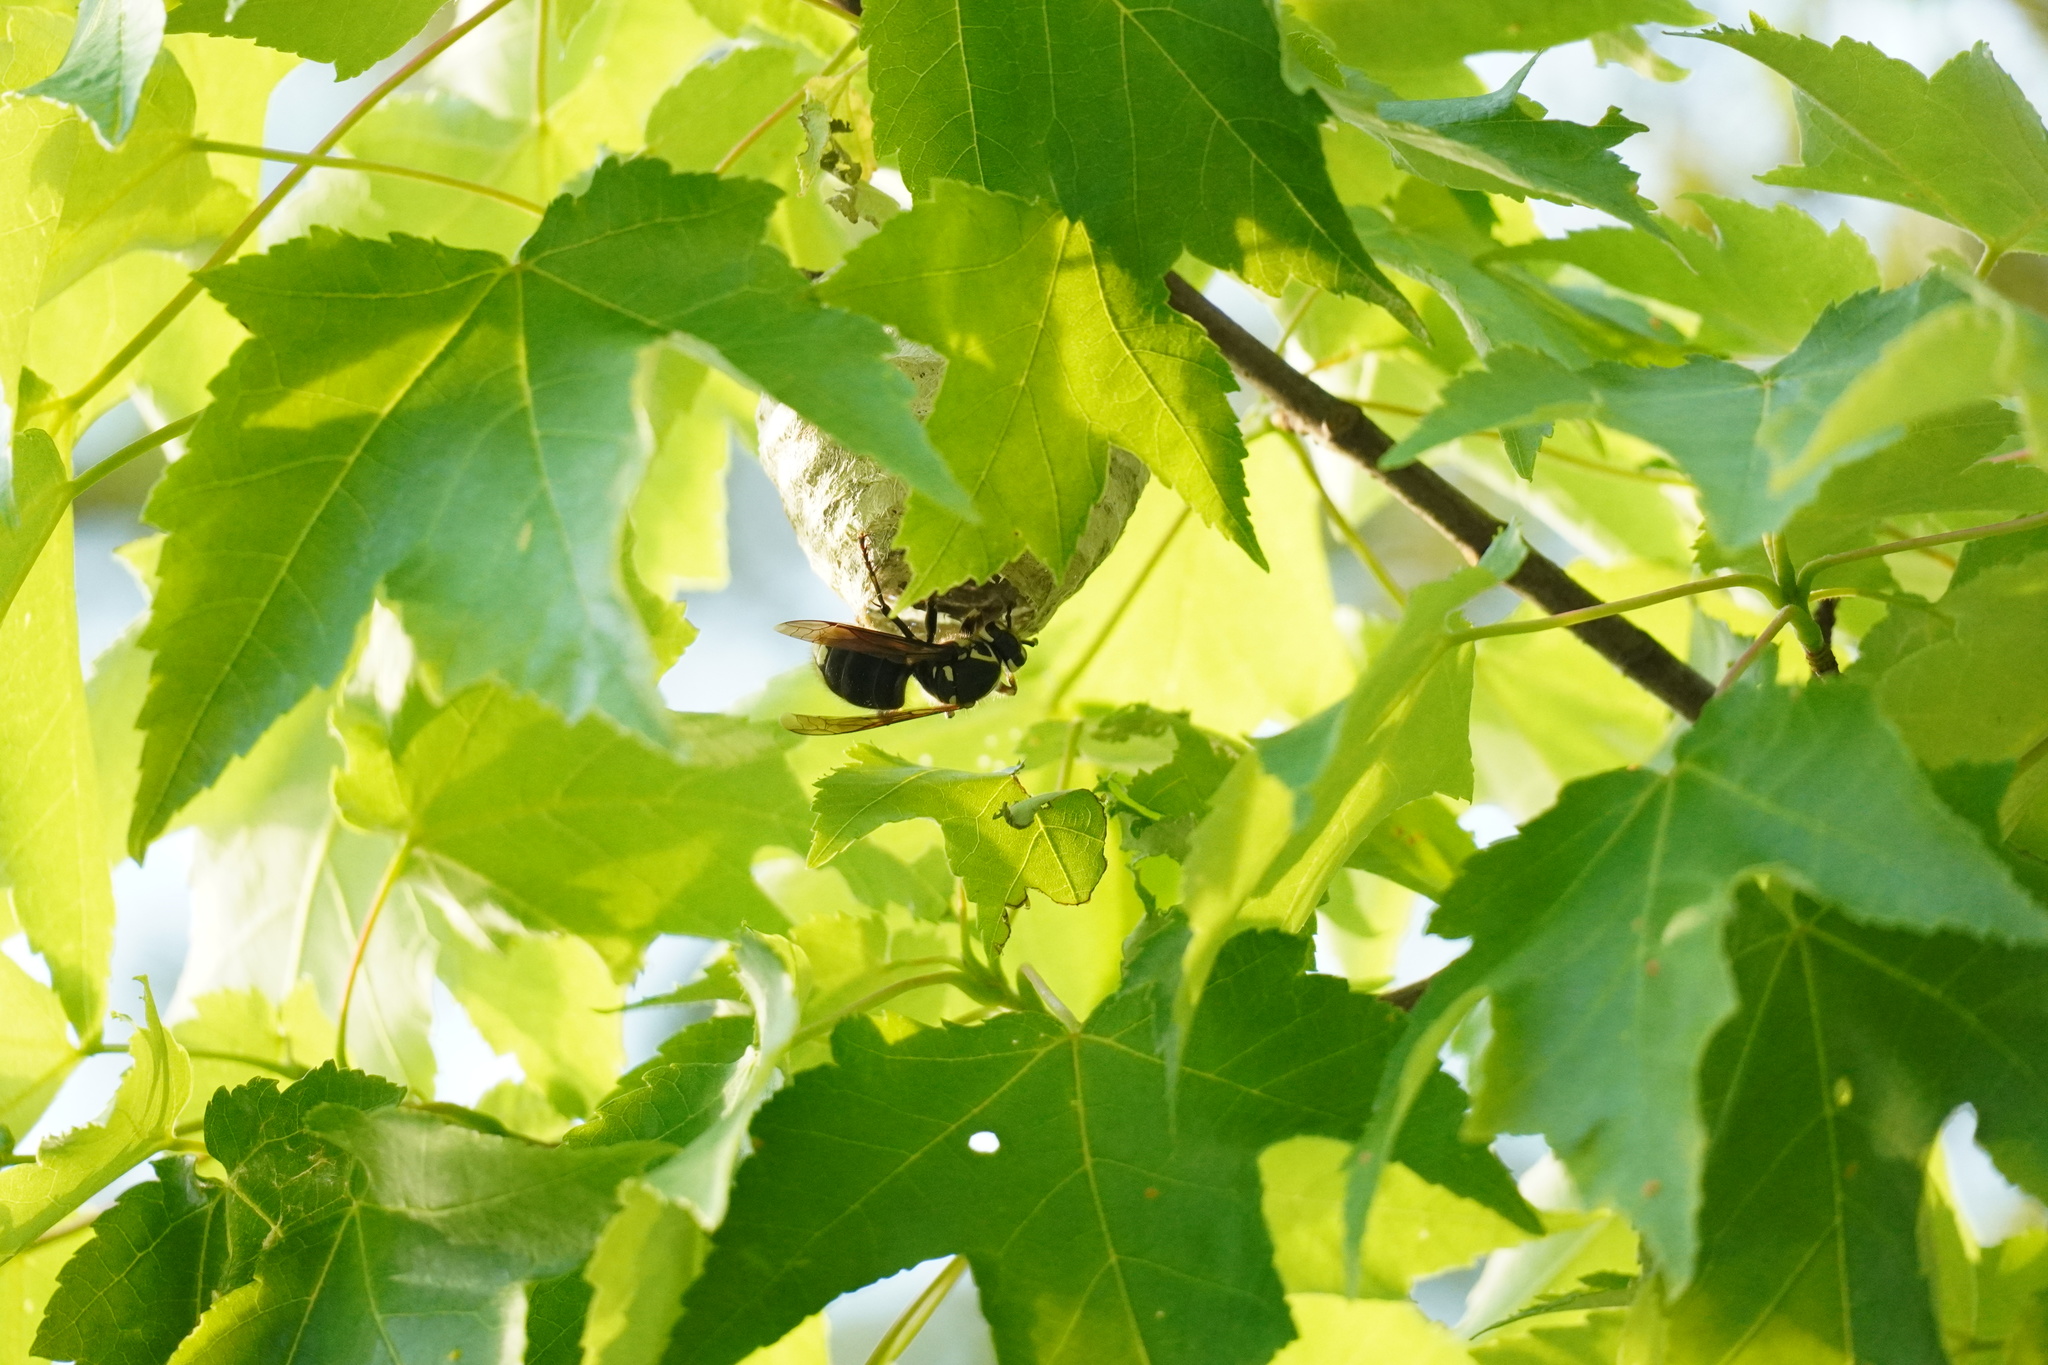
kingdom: Animalia
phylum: Arthropoda
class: Insecta
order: Hymenoptera
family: Vespidae
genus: Dolichovespula
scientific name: Dolichovespula maculata
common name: Bald-faced hornet
